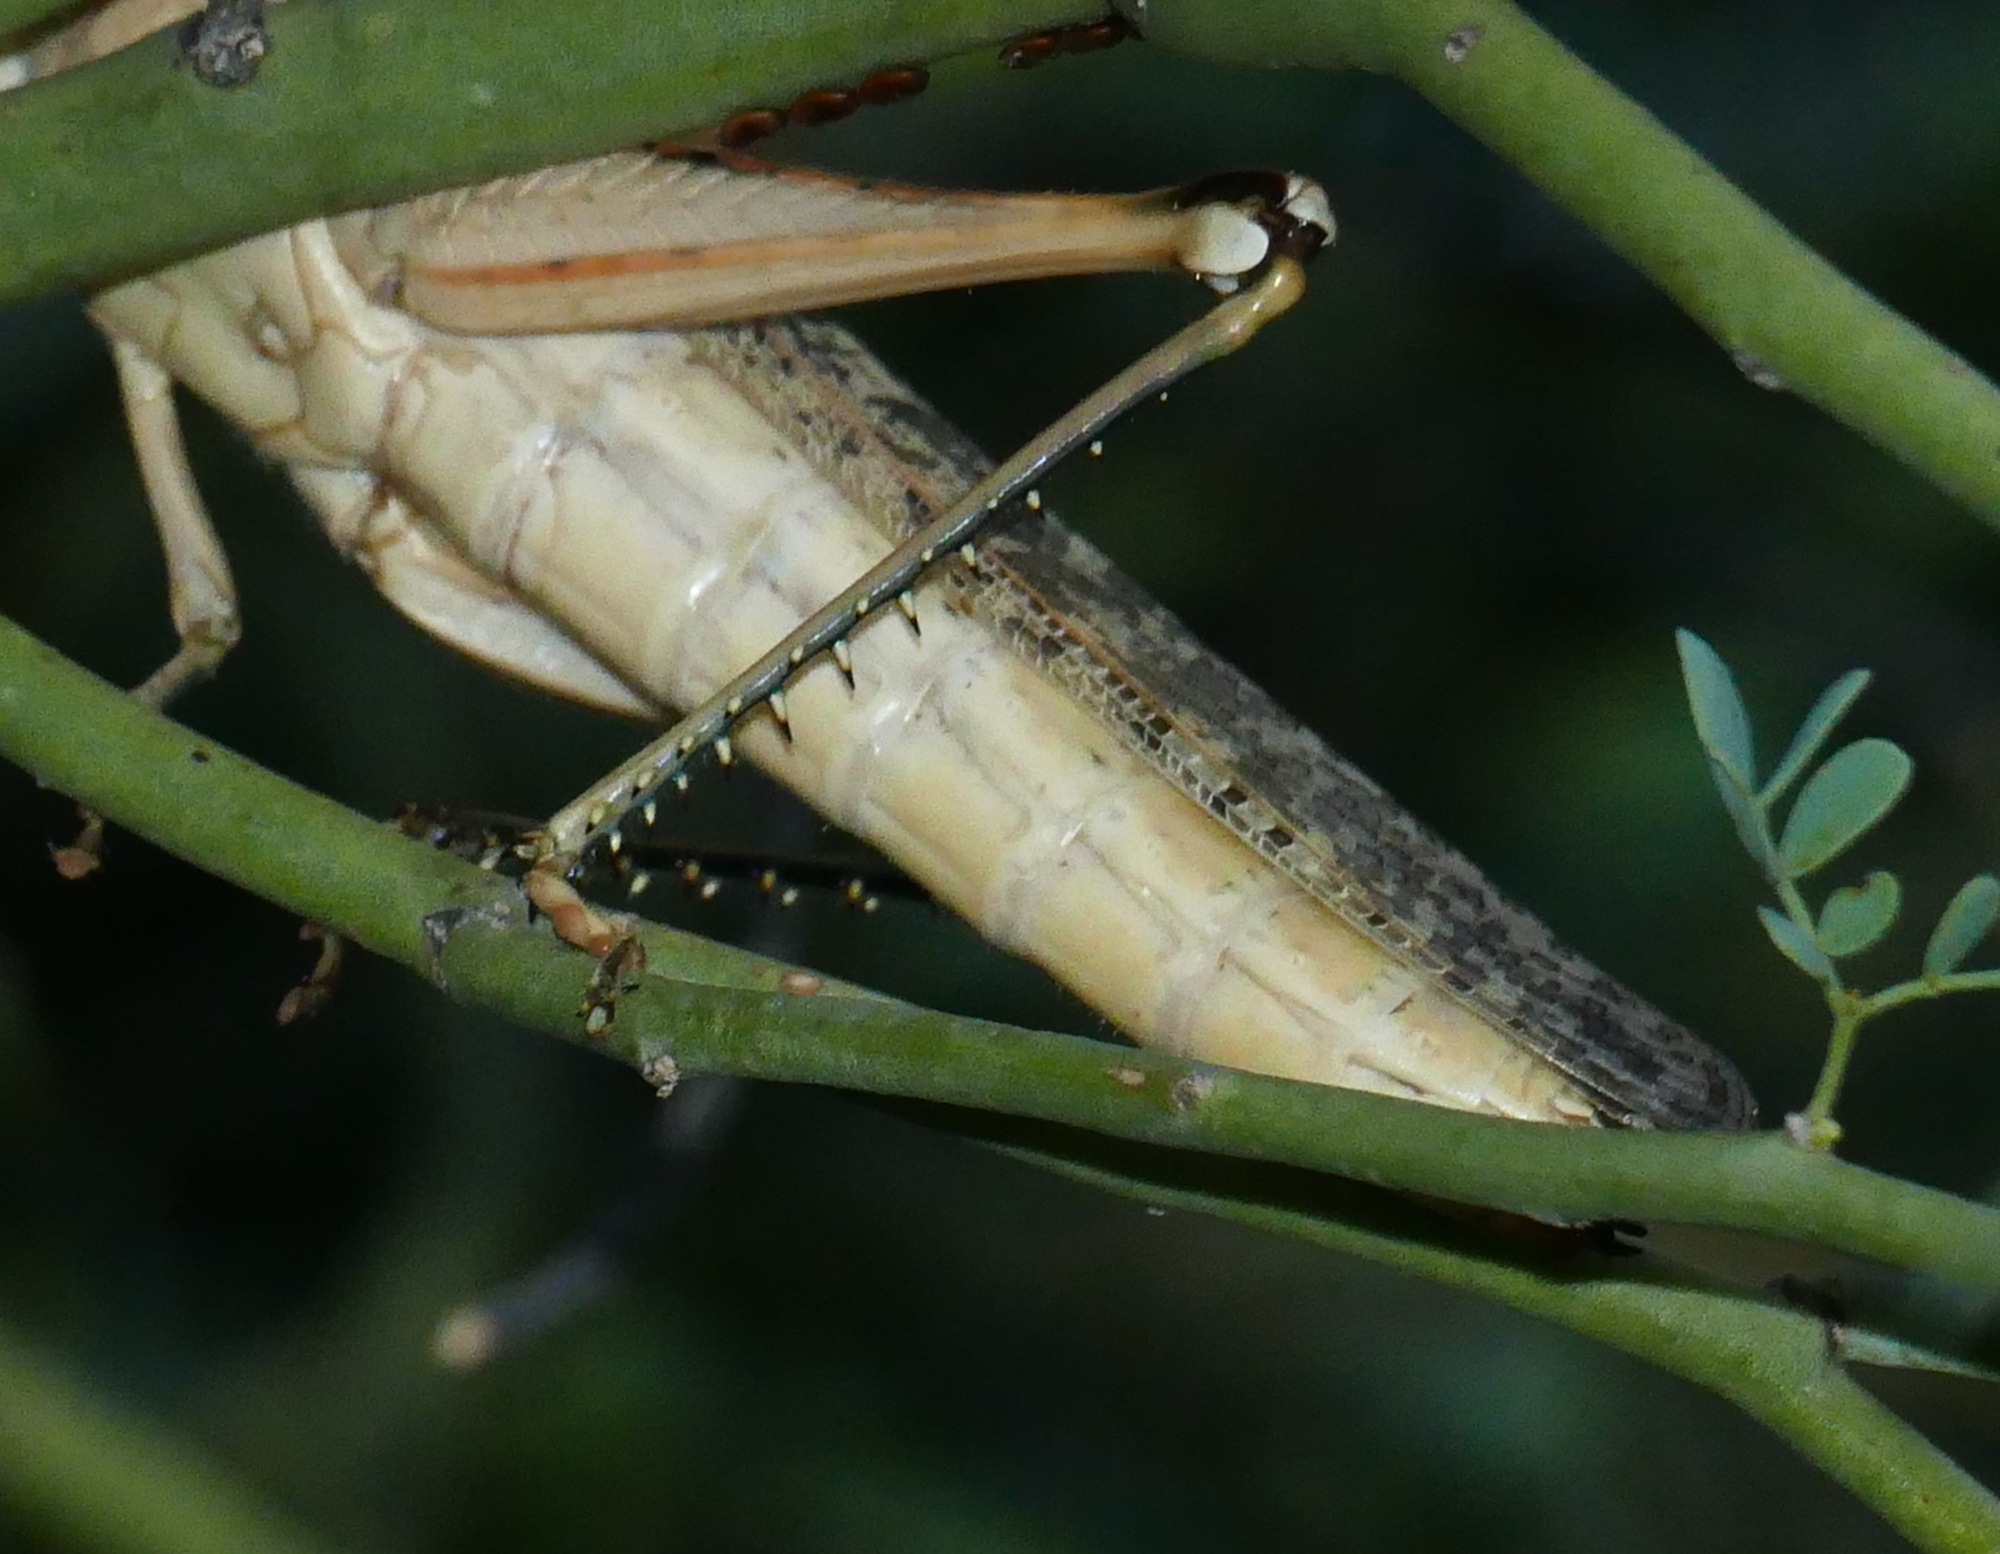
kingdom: Animalia
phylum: Arthropoda
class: Insecta
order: Orthoptera
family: Acrididae
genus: Schistocerca
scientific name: Schistocerca nitens
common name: Vagrant grasshopper
